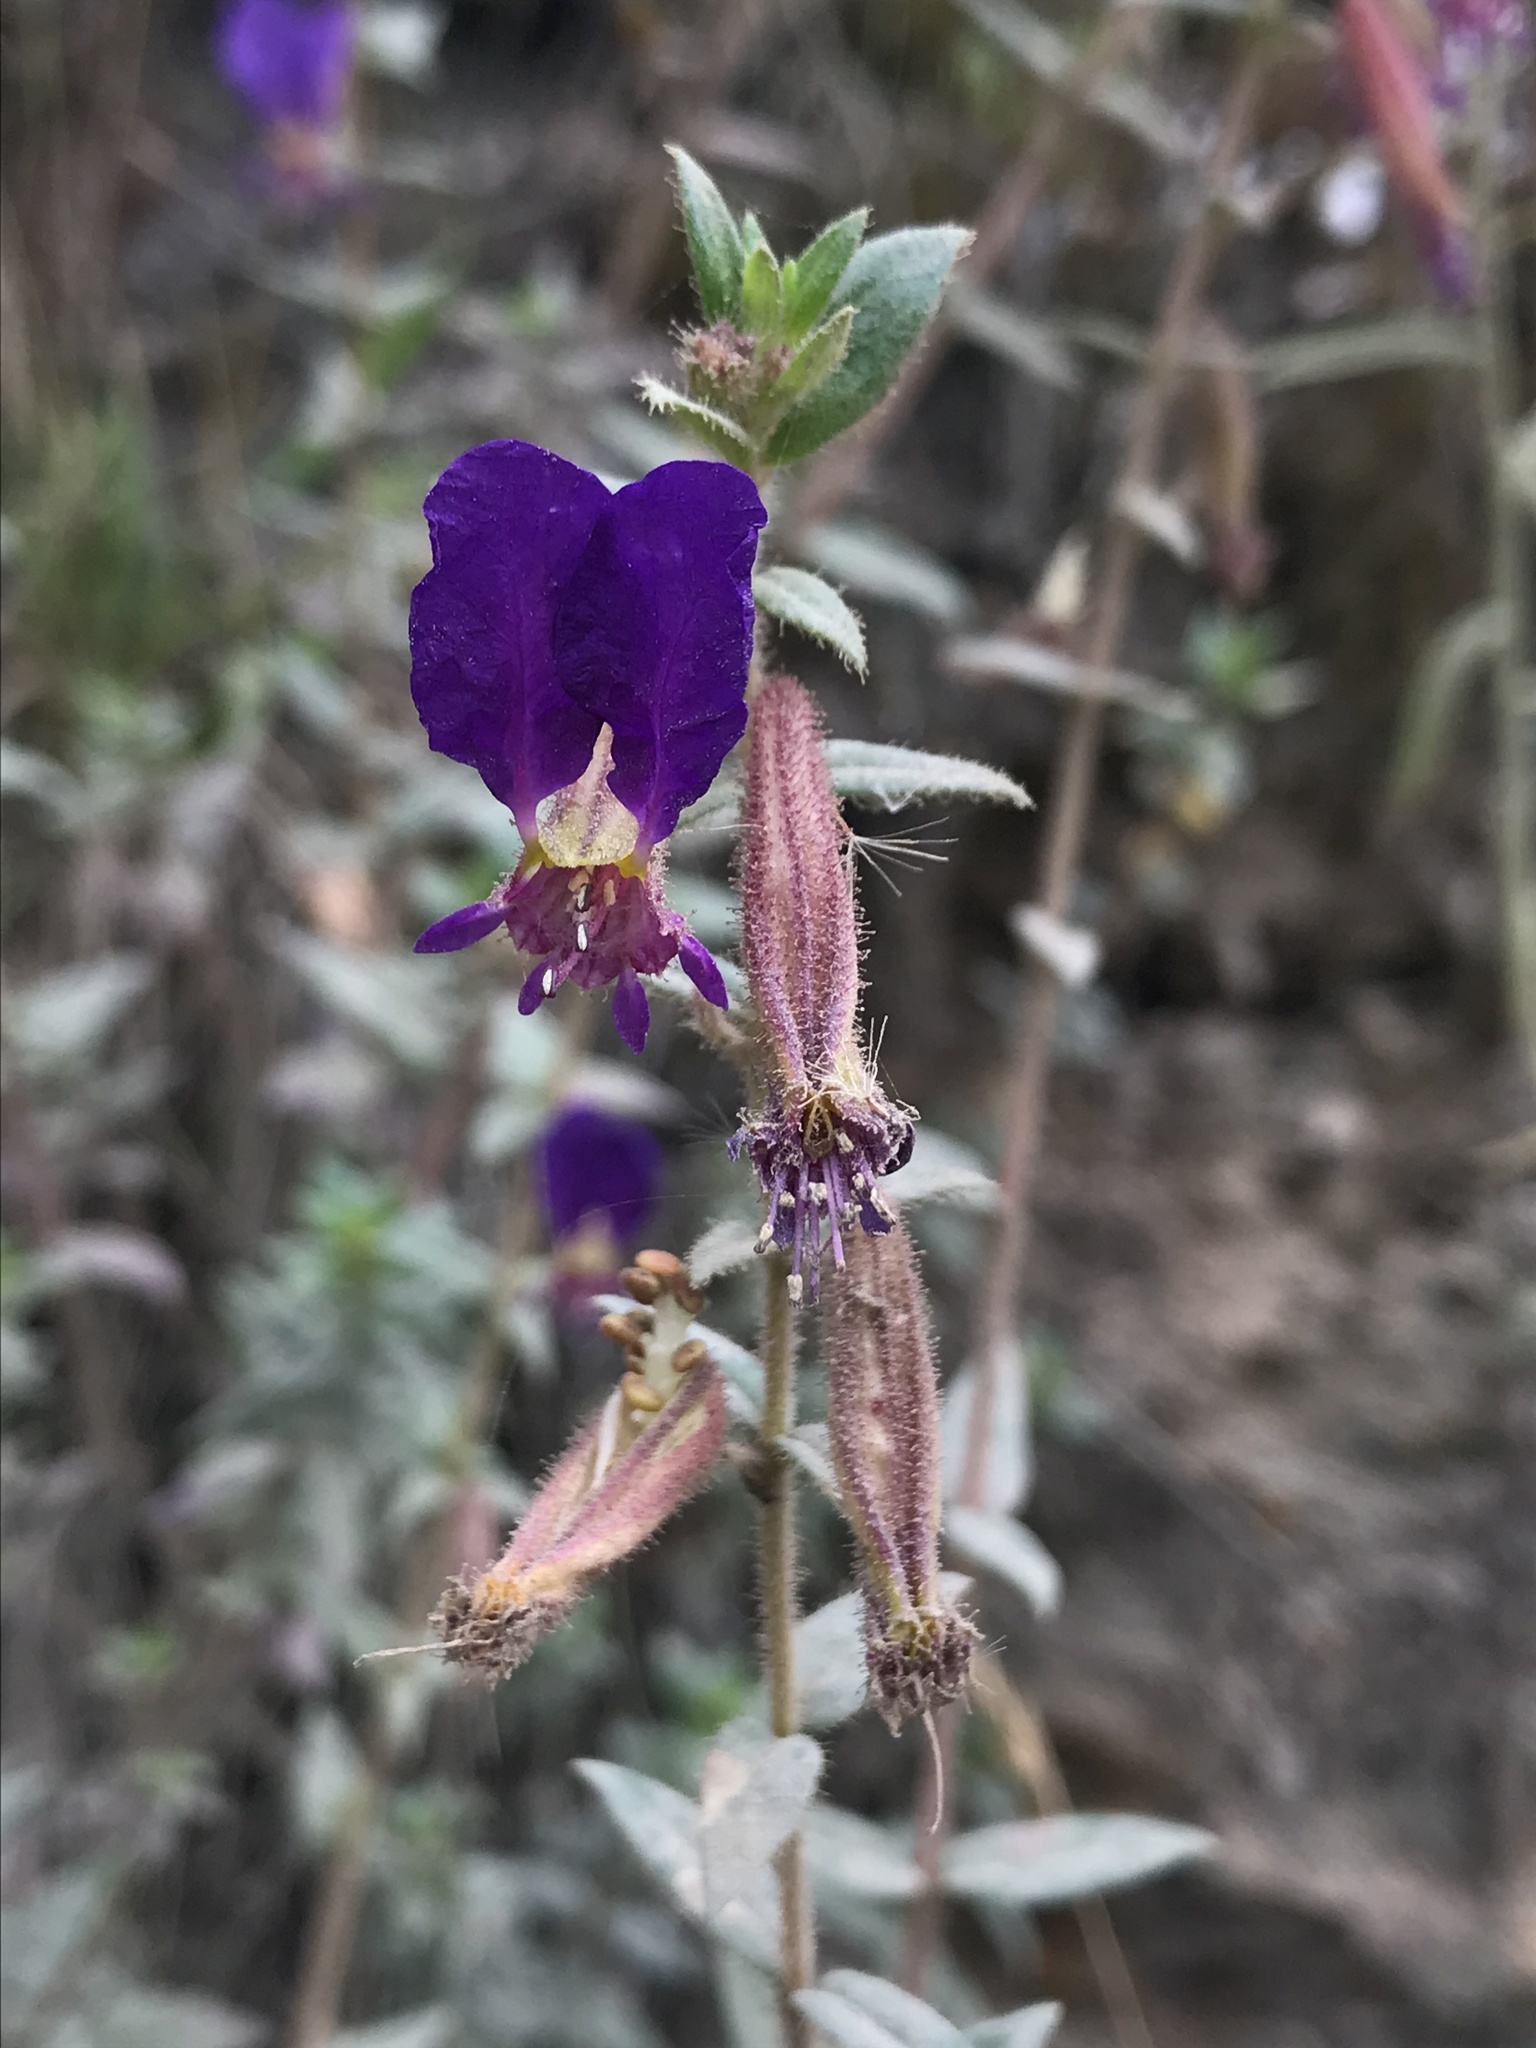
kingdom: Plantae
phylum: Tracheophyta
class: Magnoliopsida
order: Myrtales
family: Lythraceae
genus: Cuphea
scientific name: Cuphea dipetala
